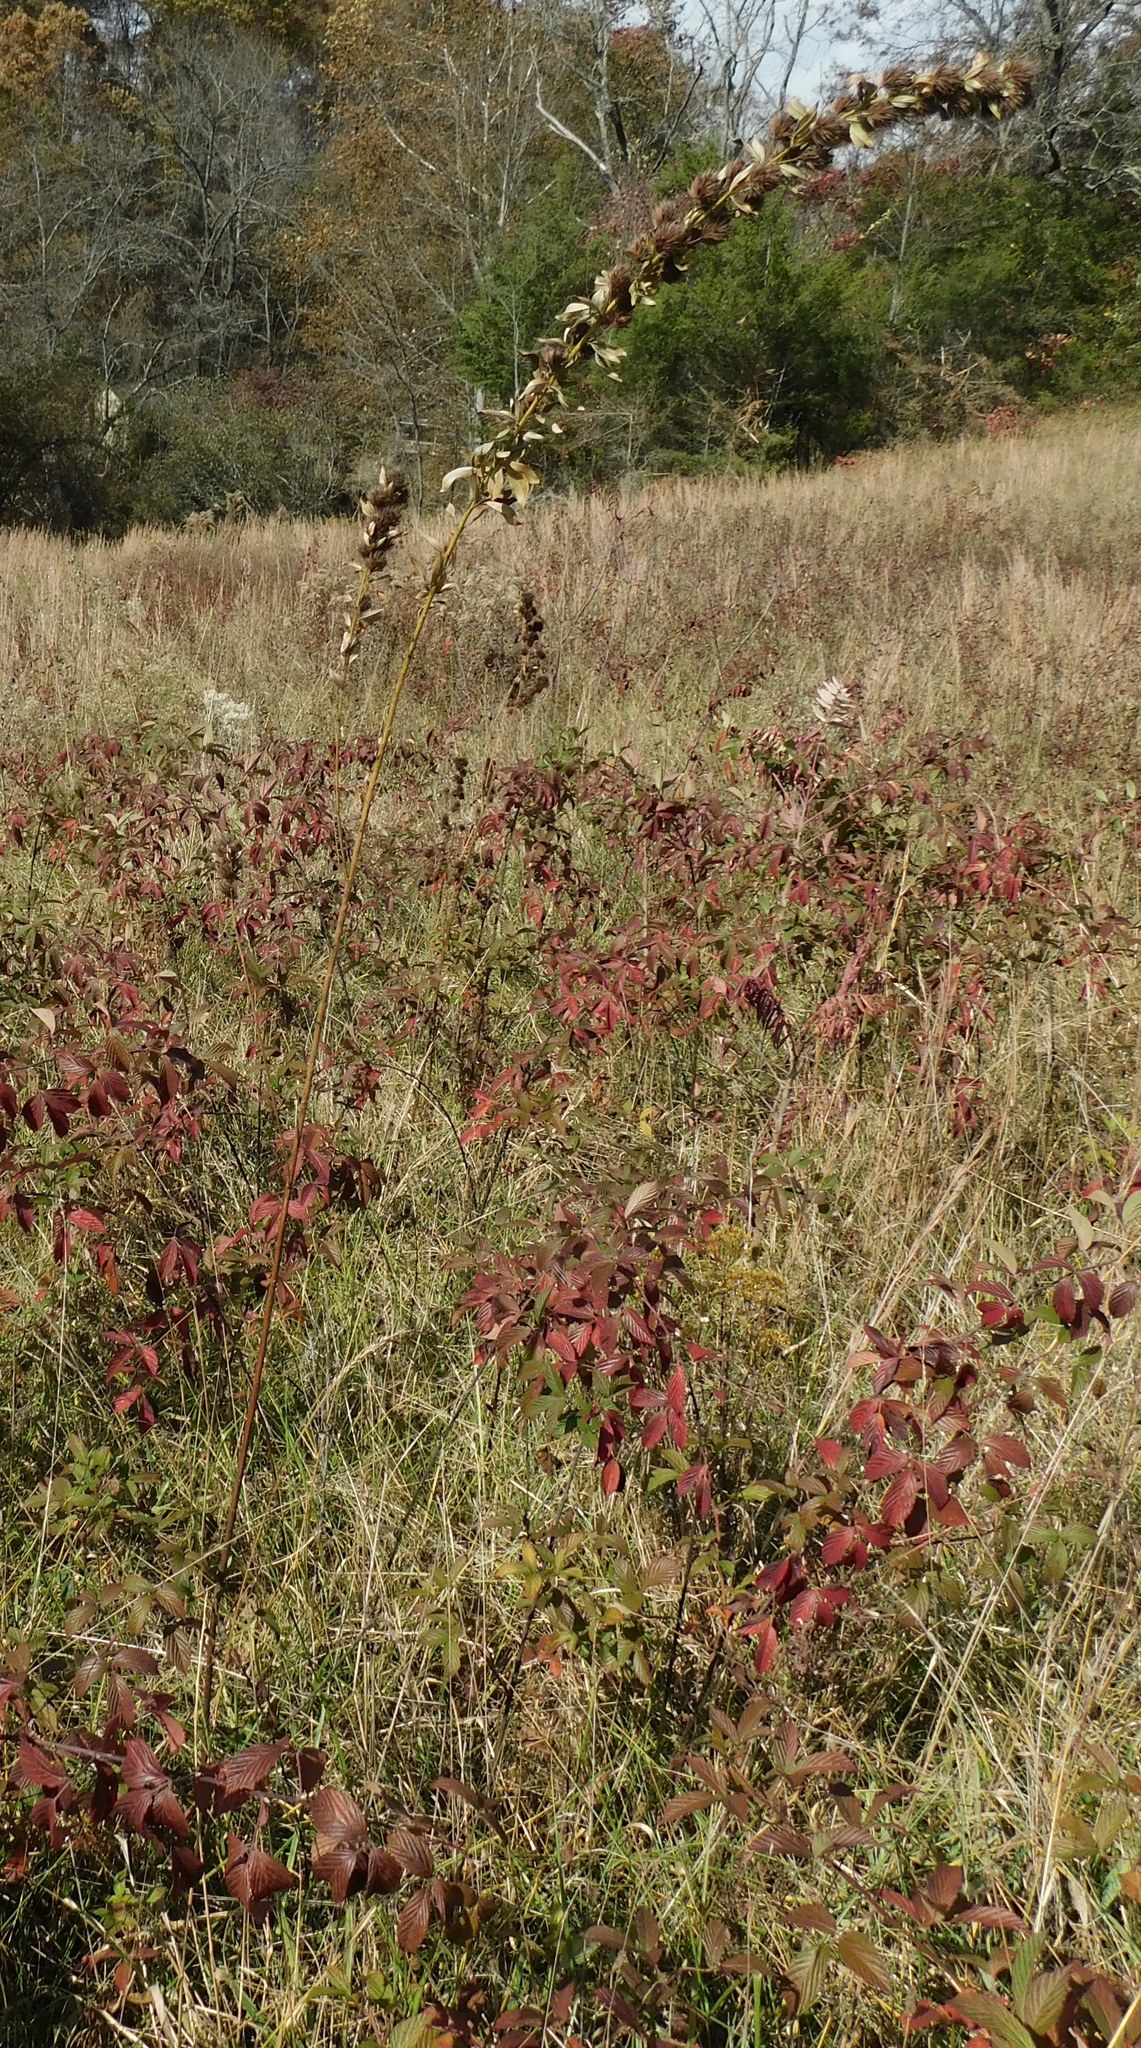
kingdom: Plantae
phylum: Tracheophyta
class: Magnoliopsida
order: Fabales
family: Fabaceae
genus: Lespedeza
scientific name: Lespedeza capitata
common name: Dusty clover
